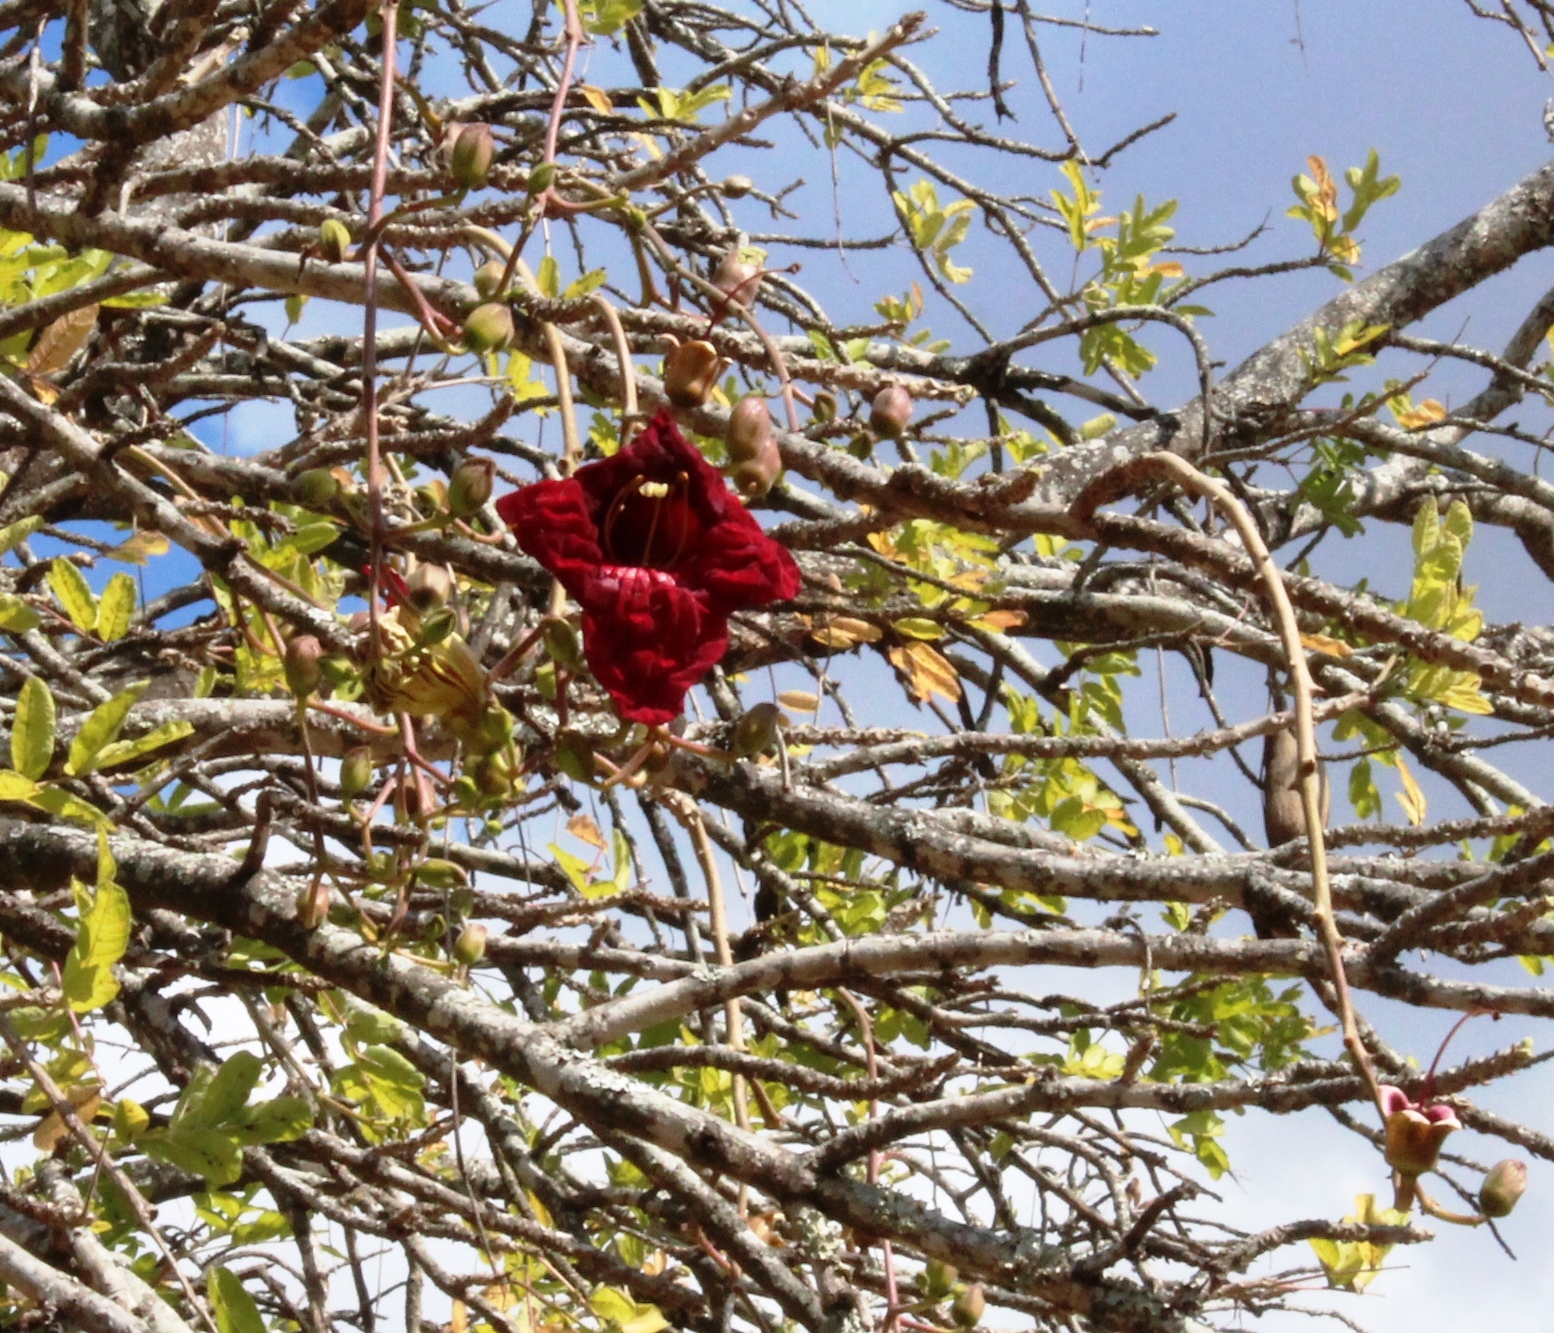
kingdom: Plantae
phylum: Tracheophyta
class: Magnoliopsida
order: Lamiales
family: Bignoniaceae
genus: Kigelia
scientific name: Kigelia africana
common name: Sausage tree
